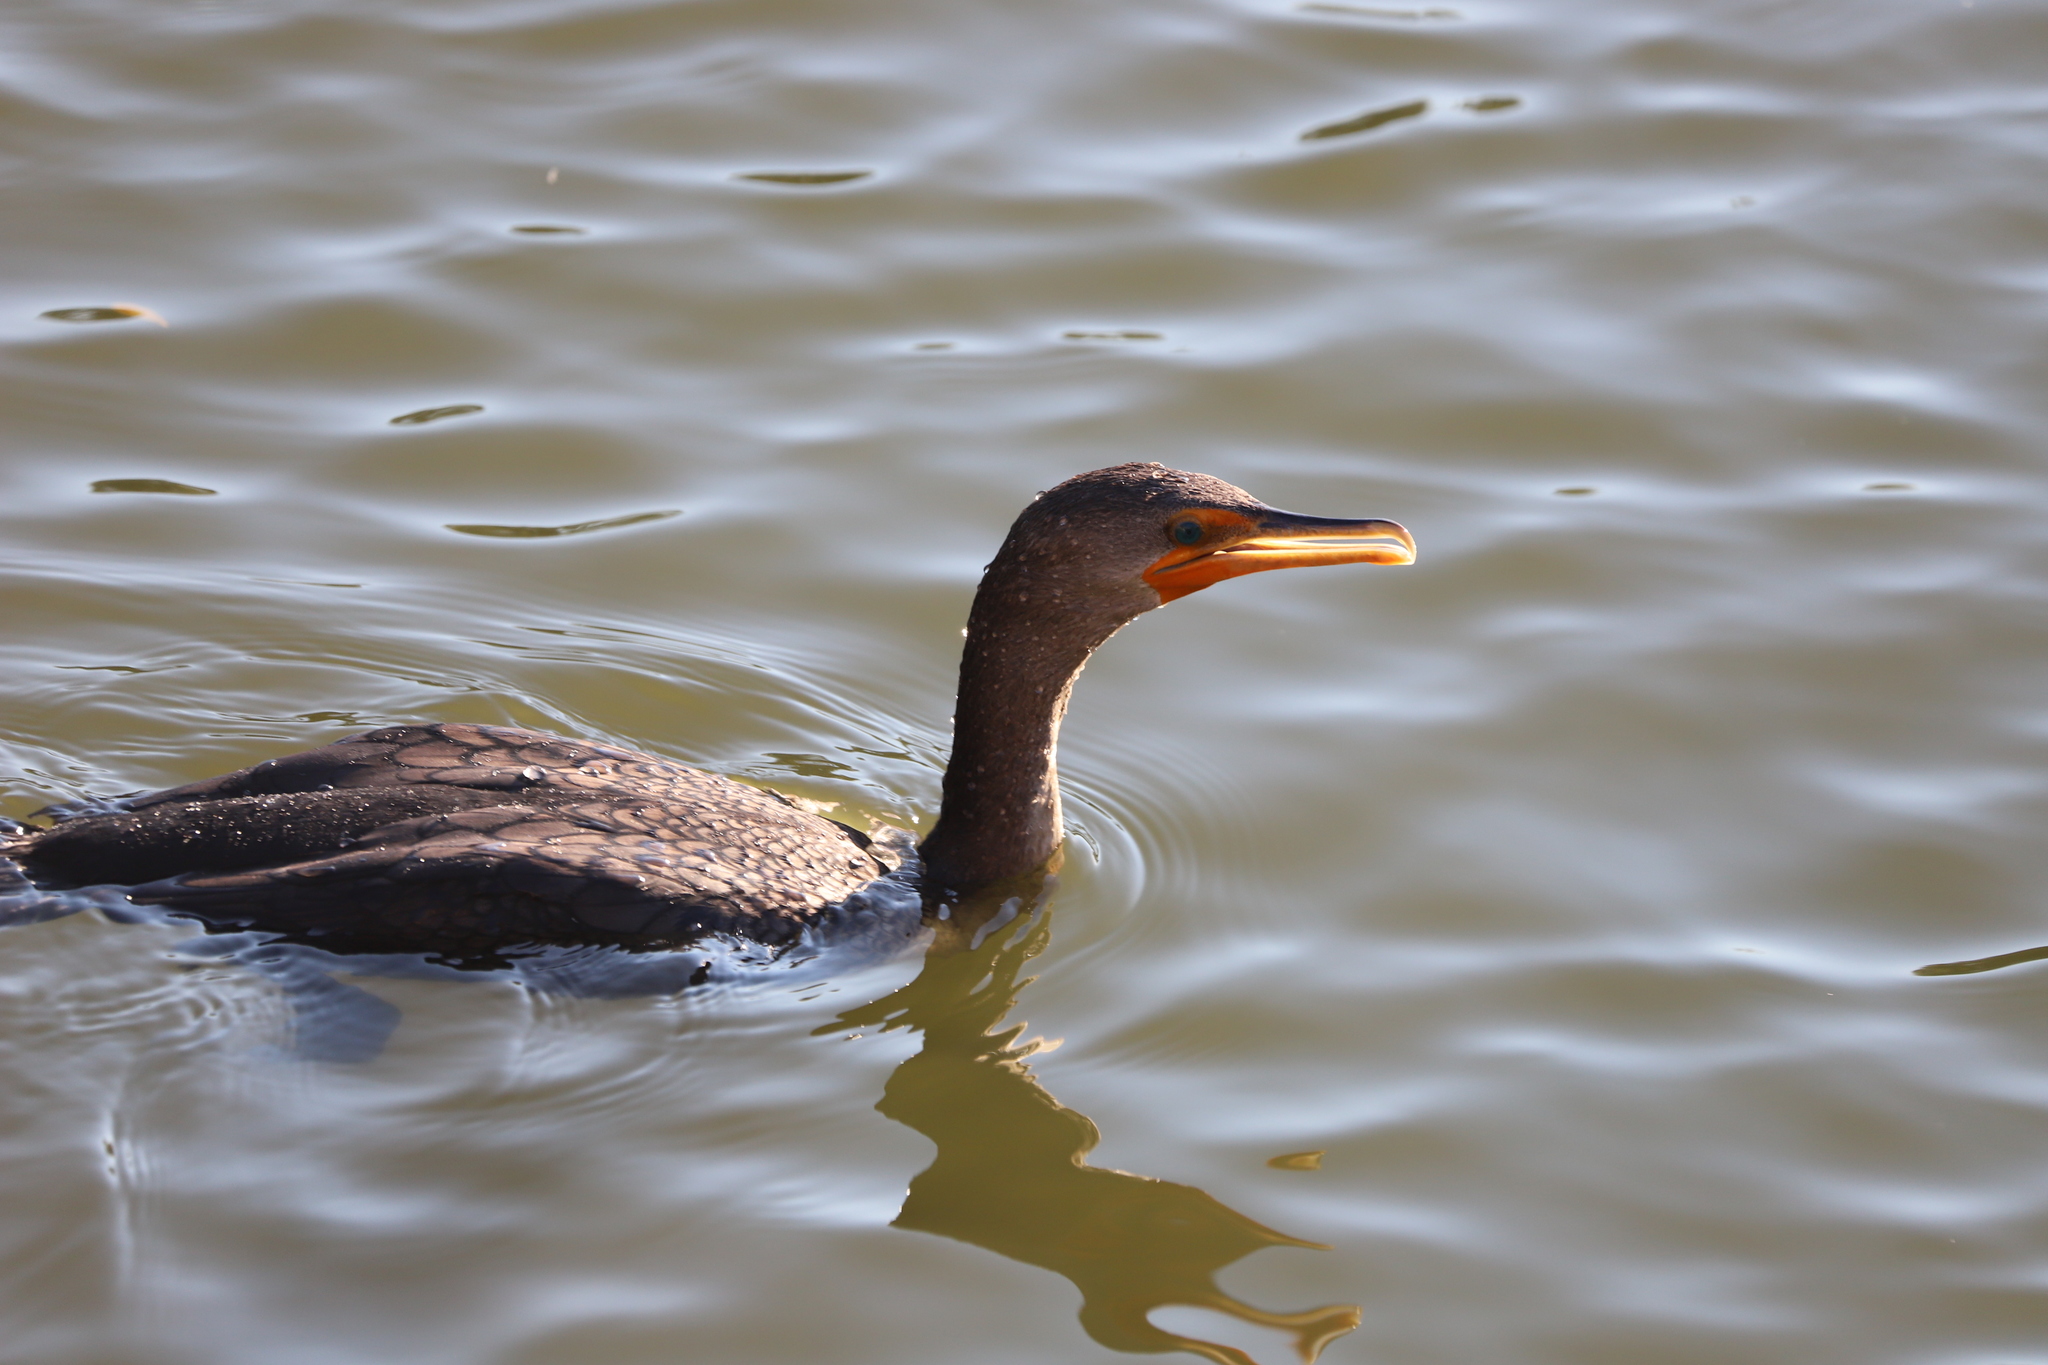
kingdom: Animalia
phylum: Chordata
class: Aves
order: Suliformes
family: Phalacrocoracidae
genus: Phalacrocorax
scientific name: Phalacrocorax auritus
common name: Double-crested cormorant
